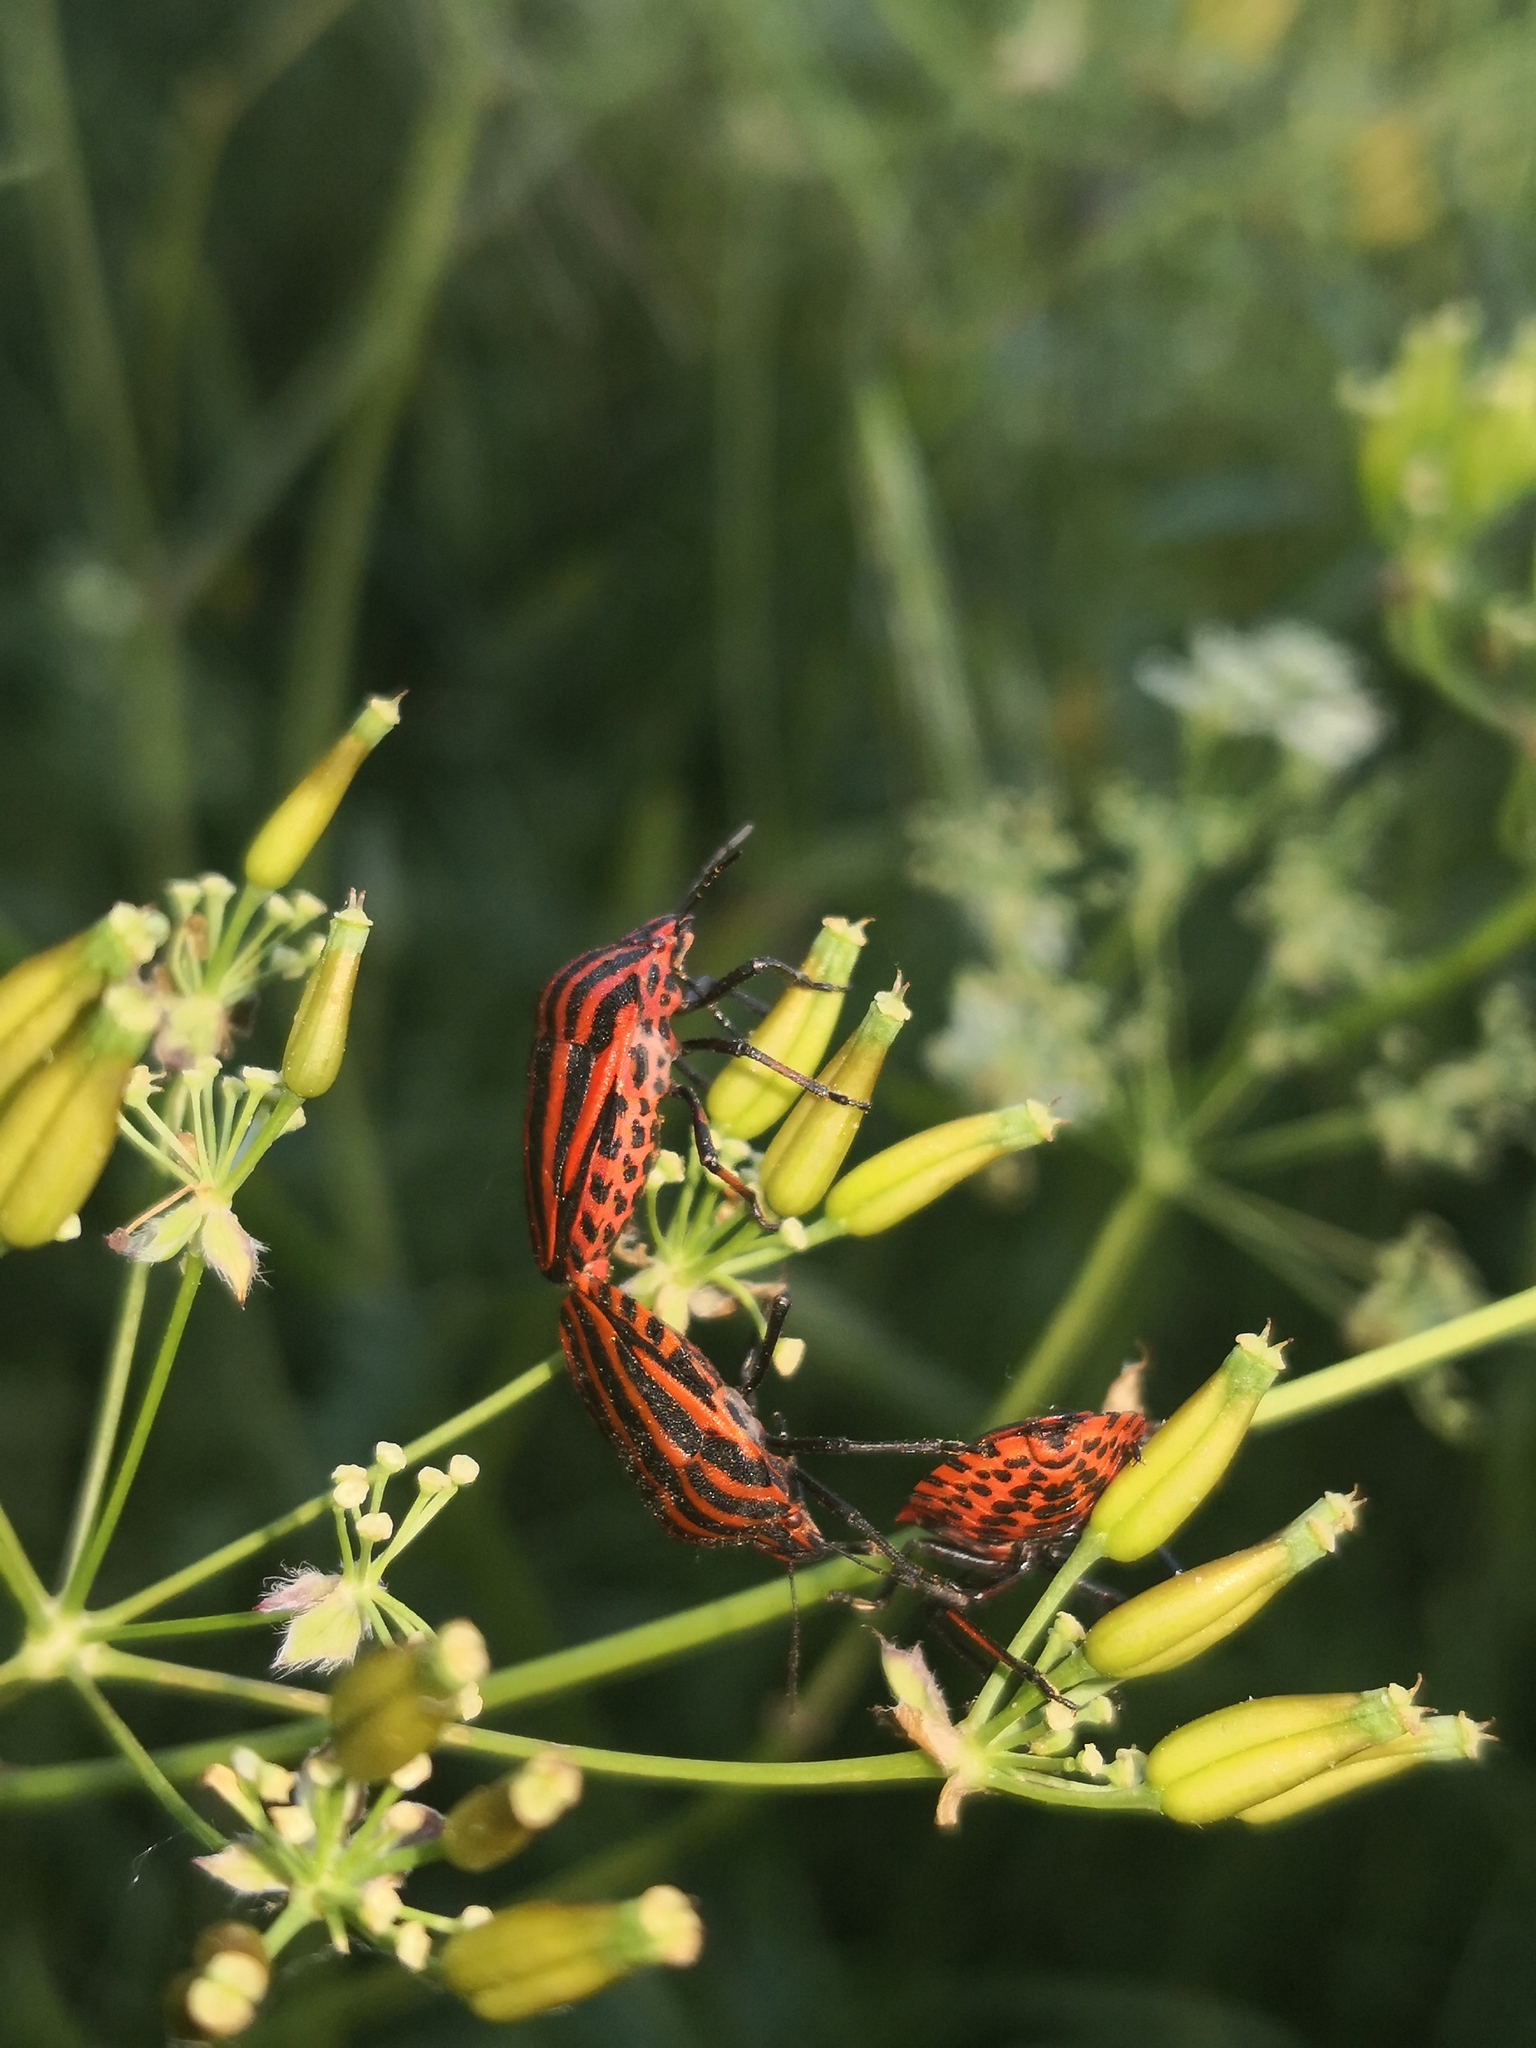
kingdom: Animalia
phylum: Arthropoda
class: Insecta
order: Hemiptera
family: Pentatomidae
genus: Graphosoma
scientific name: Graphosoma italicum
